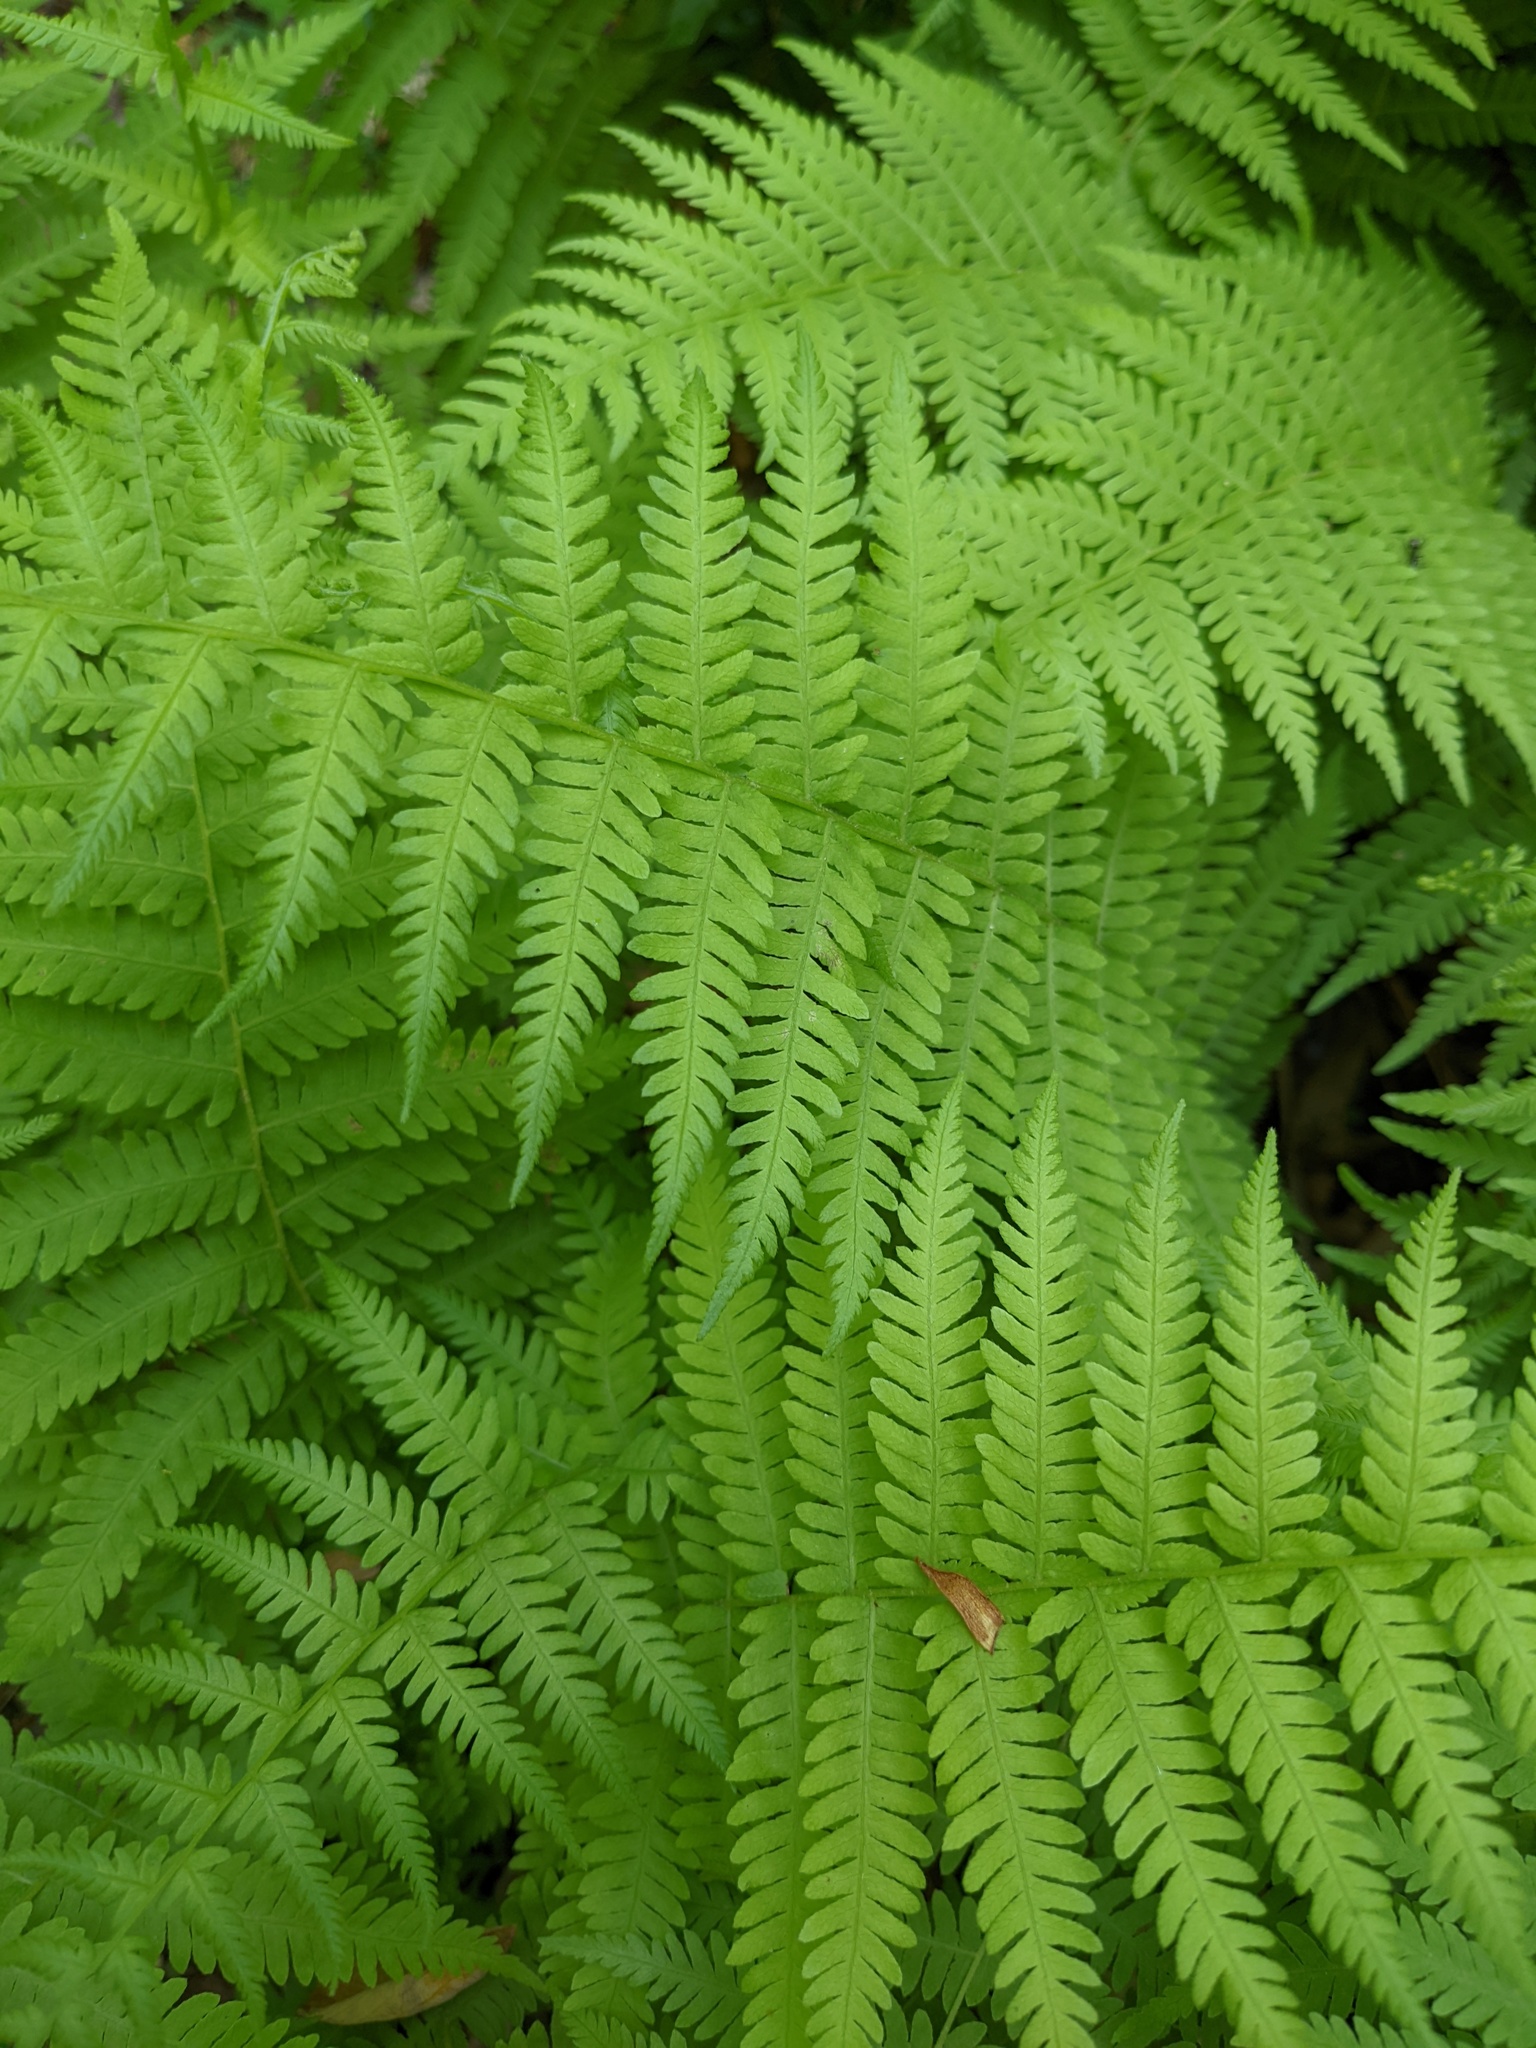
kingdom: Plantae
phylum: Tracheophyta
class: Polypodiopsida
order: Polypodiales
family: Thelypteridaceae
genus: Amauropelta
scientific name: Amauropelta noveboracensis
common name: New york fern
